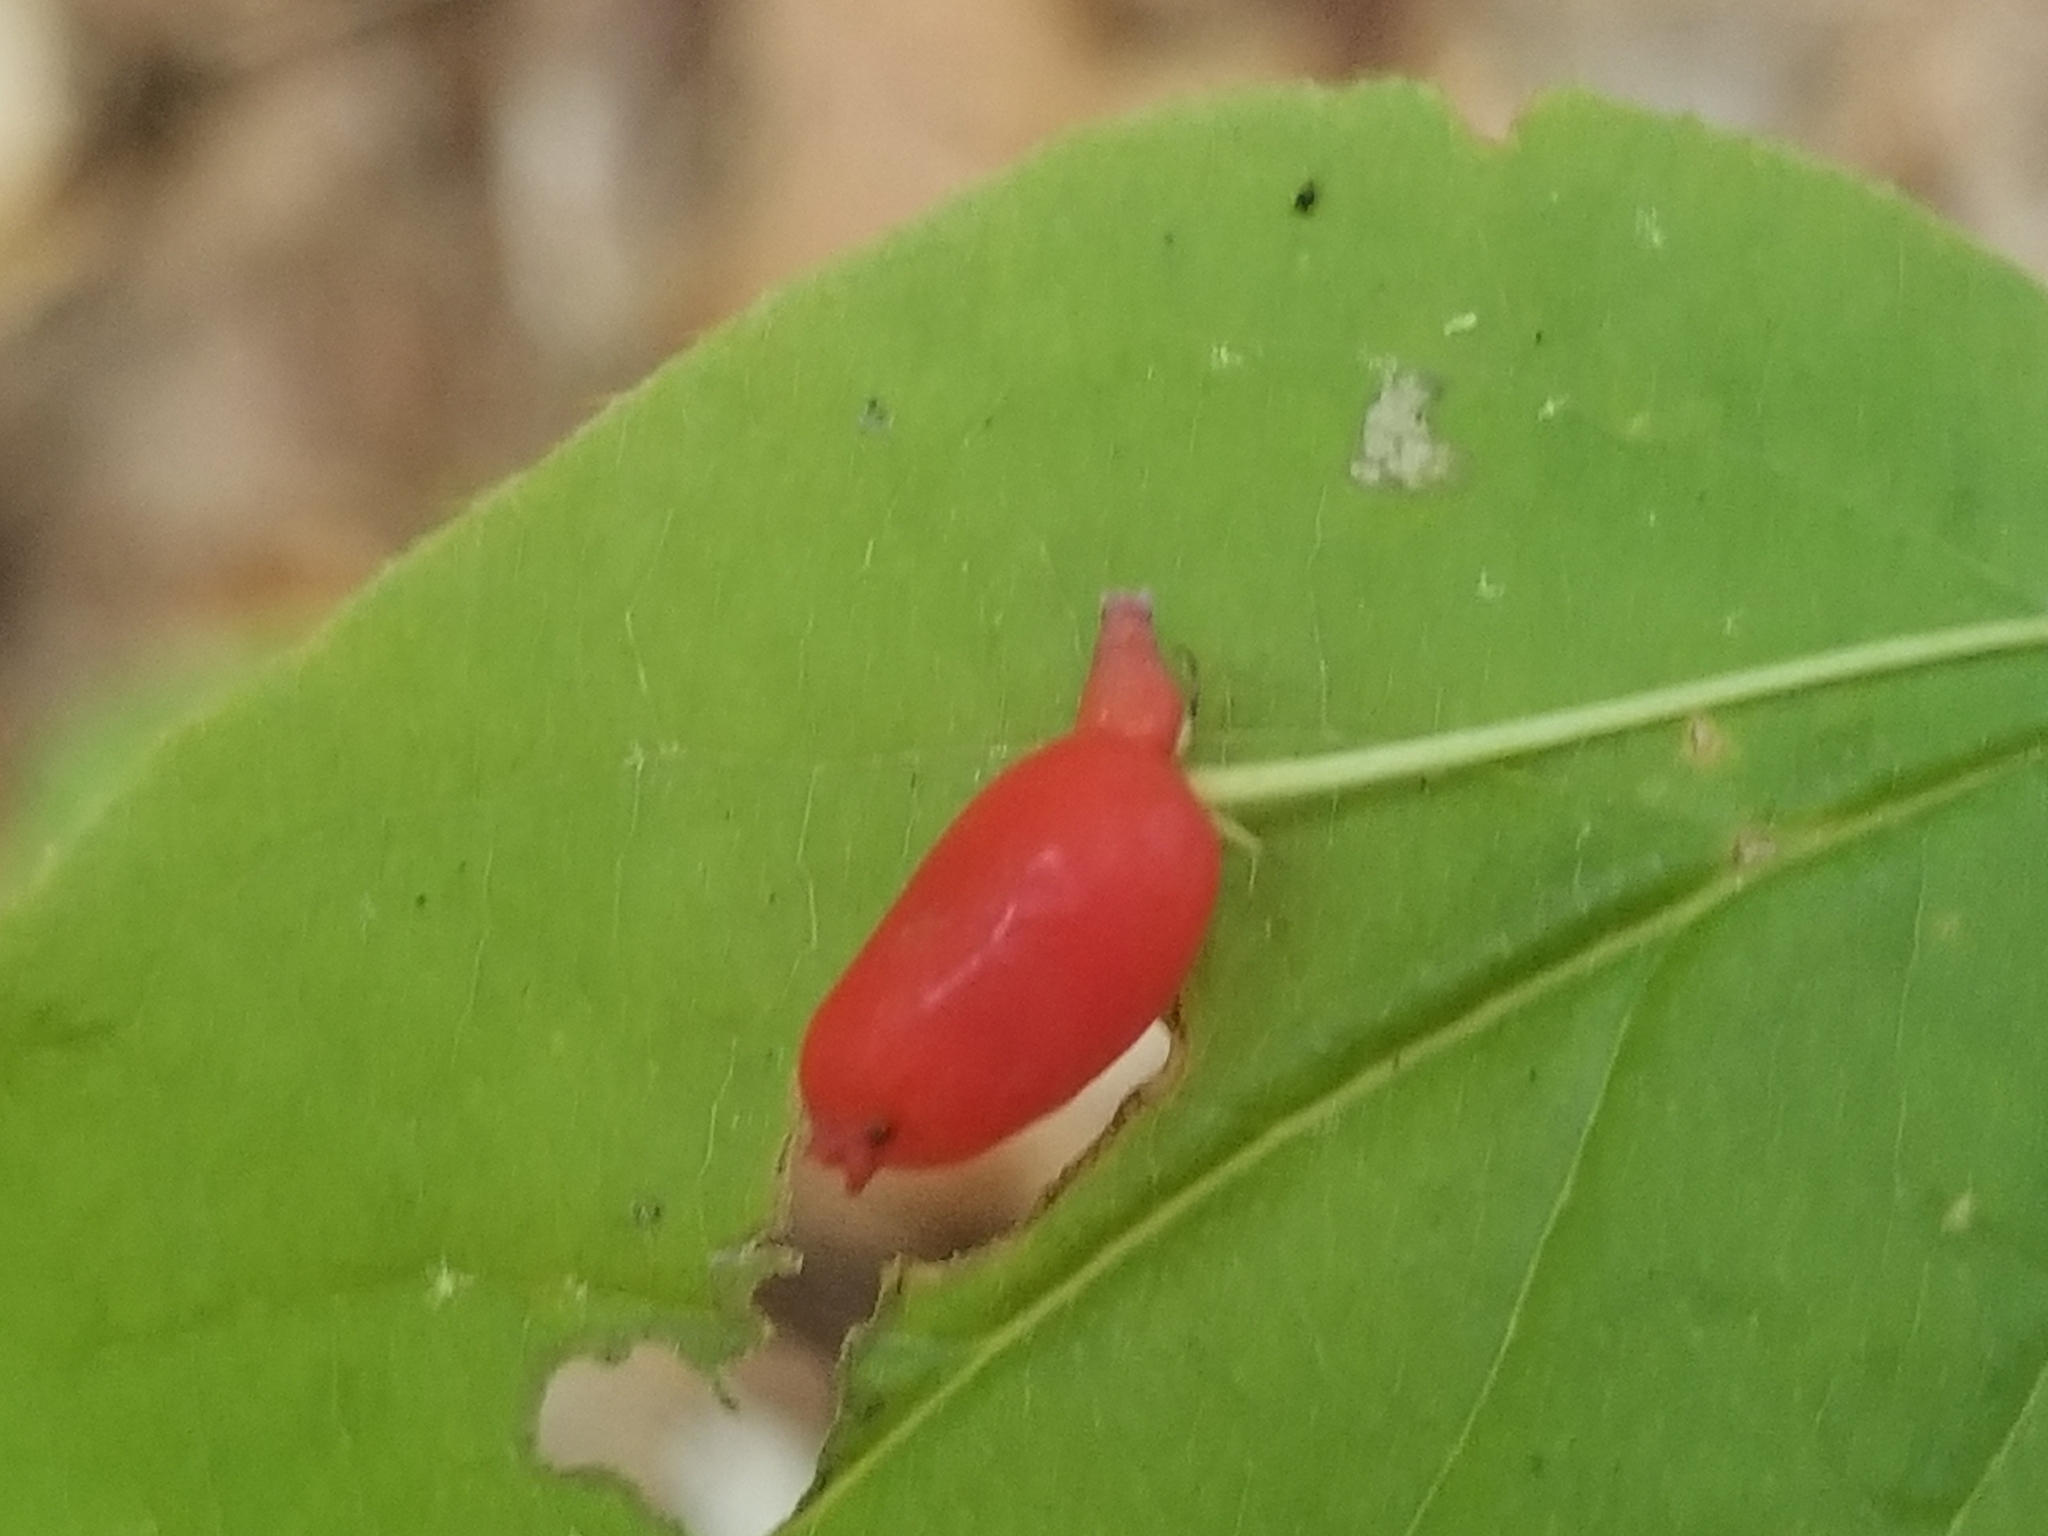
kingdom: Plantae
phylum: Tracheophyta
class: Magnoliopsida
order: Dipsacales
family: Caprifoliaceae
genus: Lonicera
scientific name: Lonicera canadensis
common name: American fly-honeysuckle
